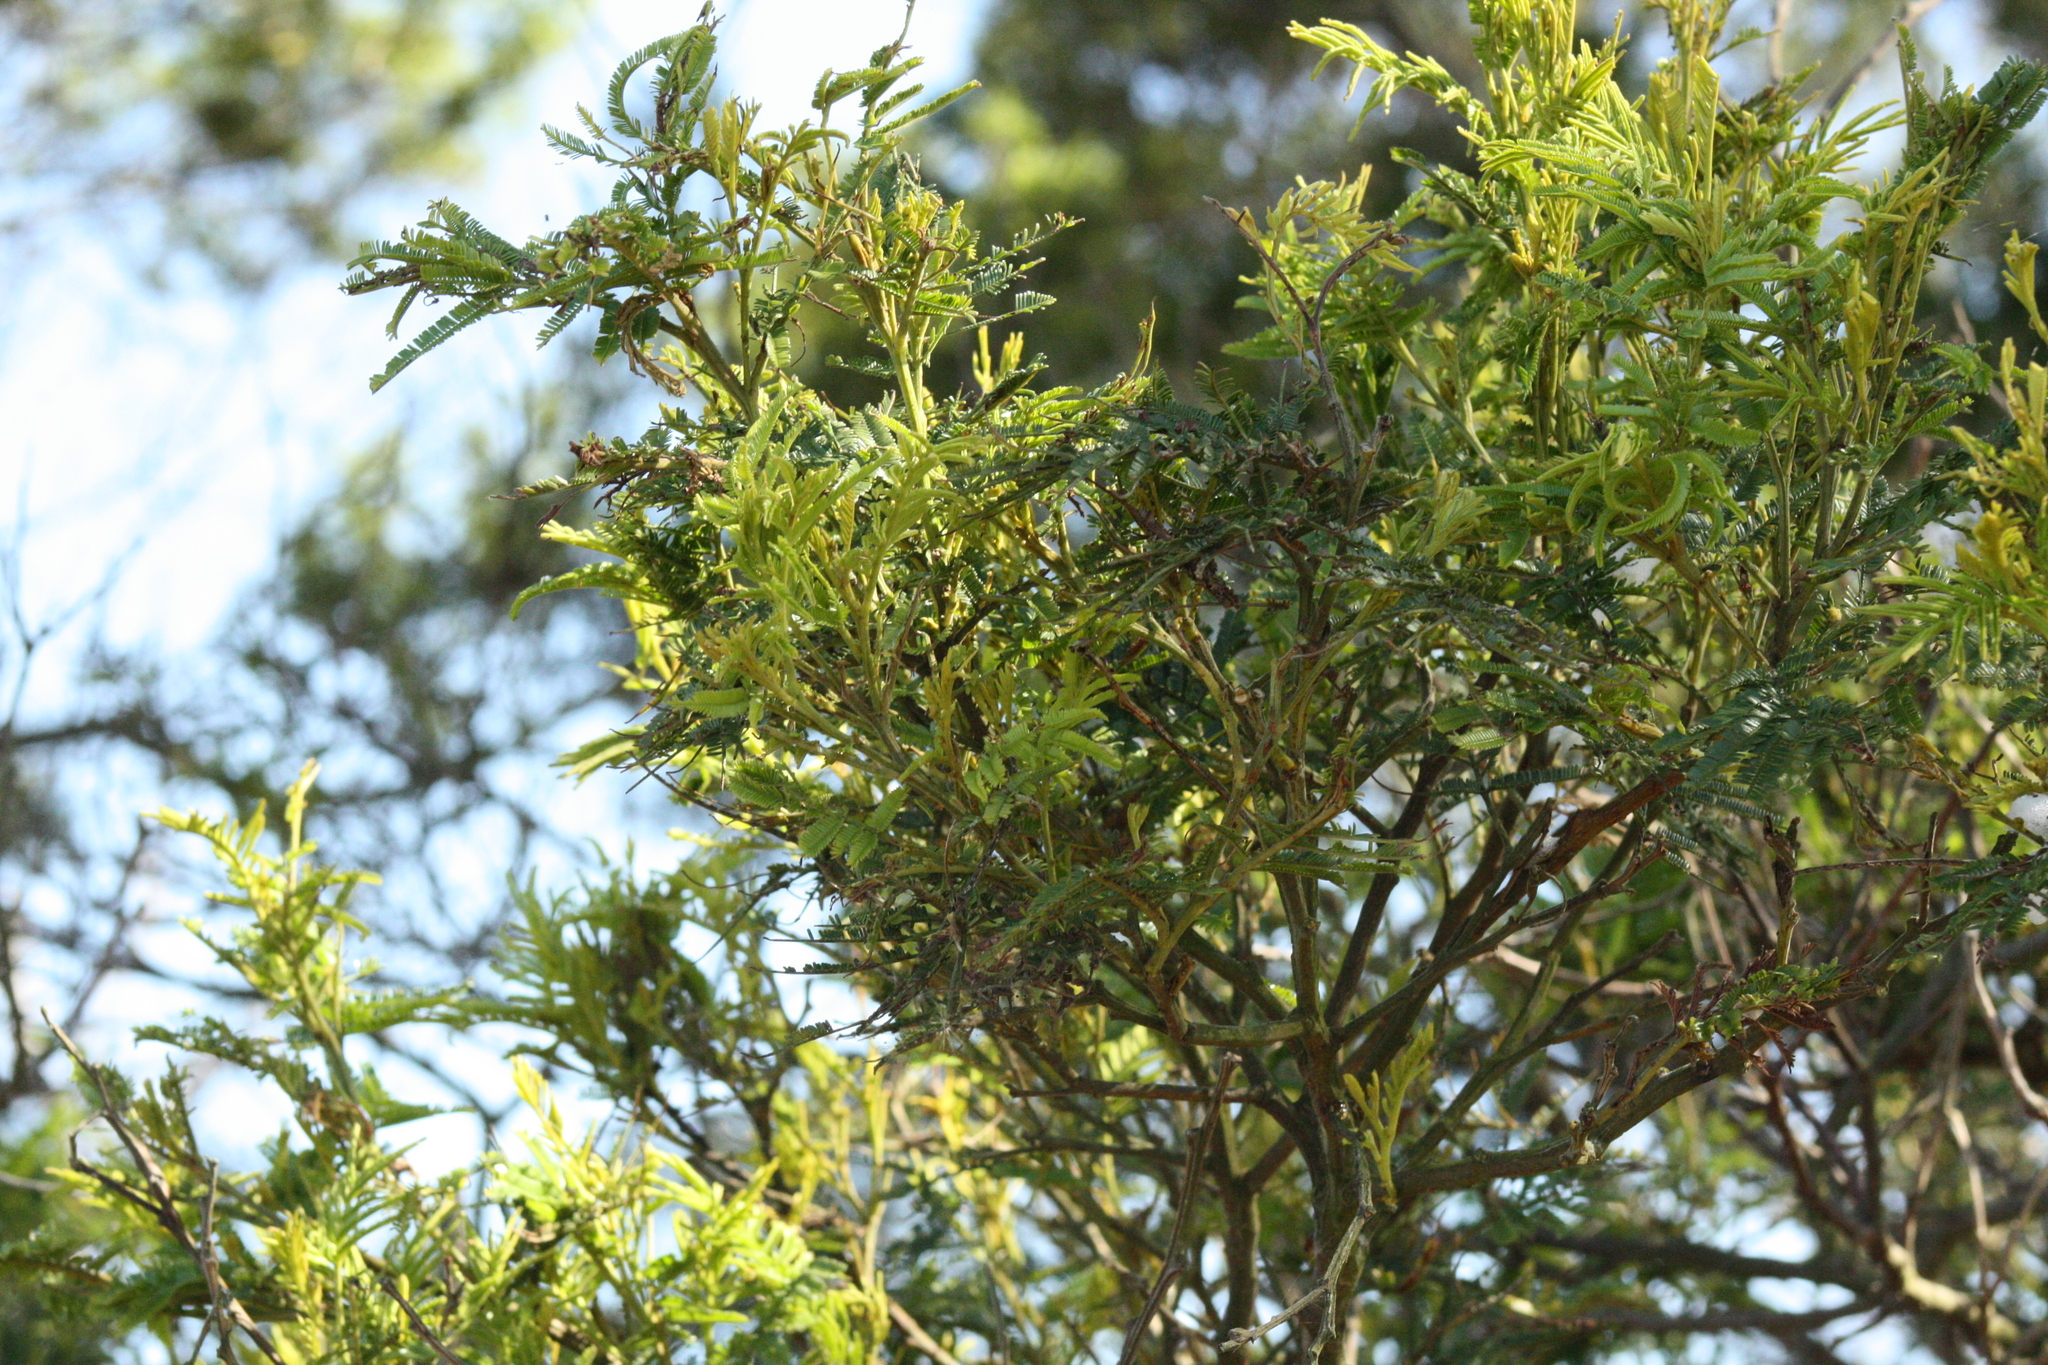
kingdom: Plantae
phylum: Tracheophyta
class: Magnoliopsida
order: Fabales
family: Fabaceae
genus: Acacia
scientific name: Acacia mearnsii
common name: Black wattle
